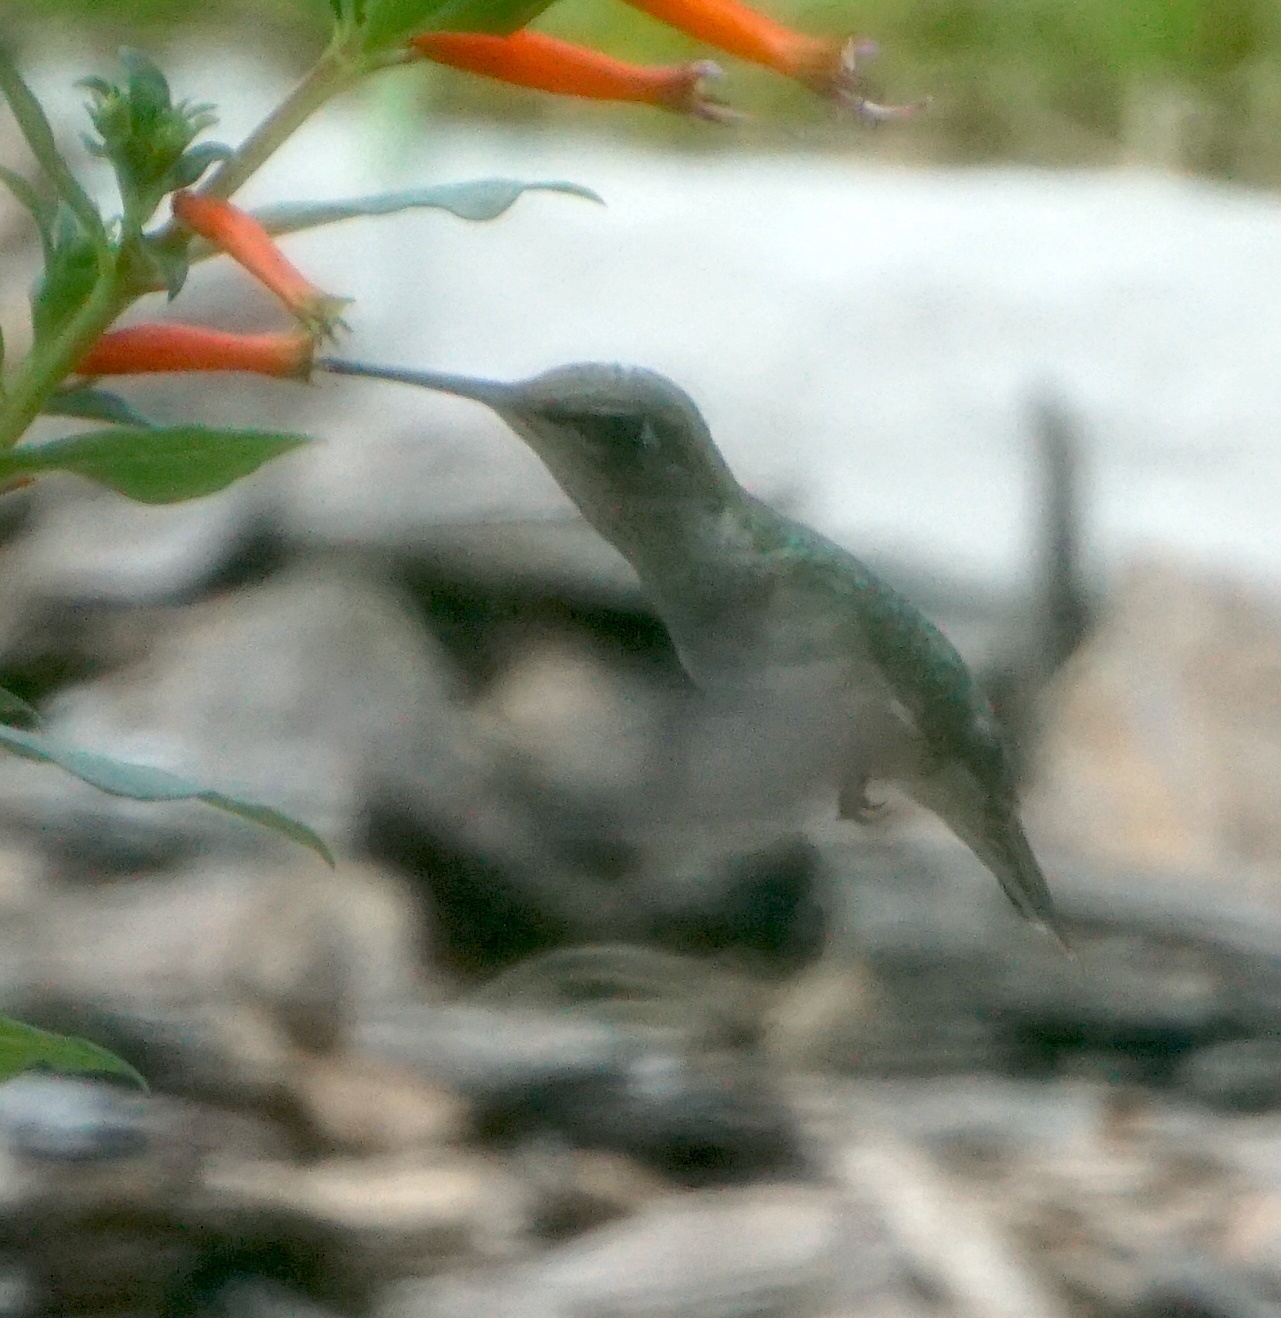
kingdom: Animalia
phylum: Chordata
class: Aves
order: Apodiformes
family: Trochilidae
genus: Archilochus
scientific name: Archilochus colubris
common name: Ruby-throated hummingbird
